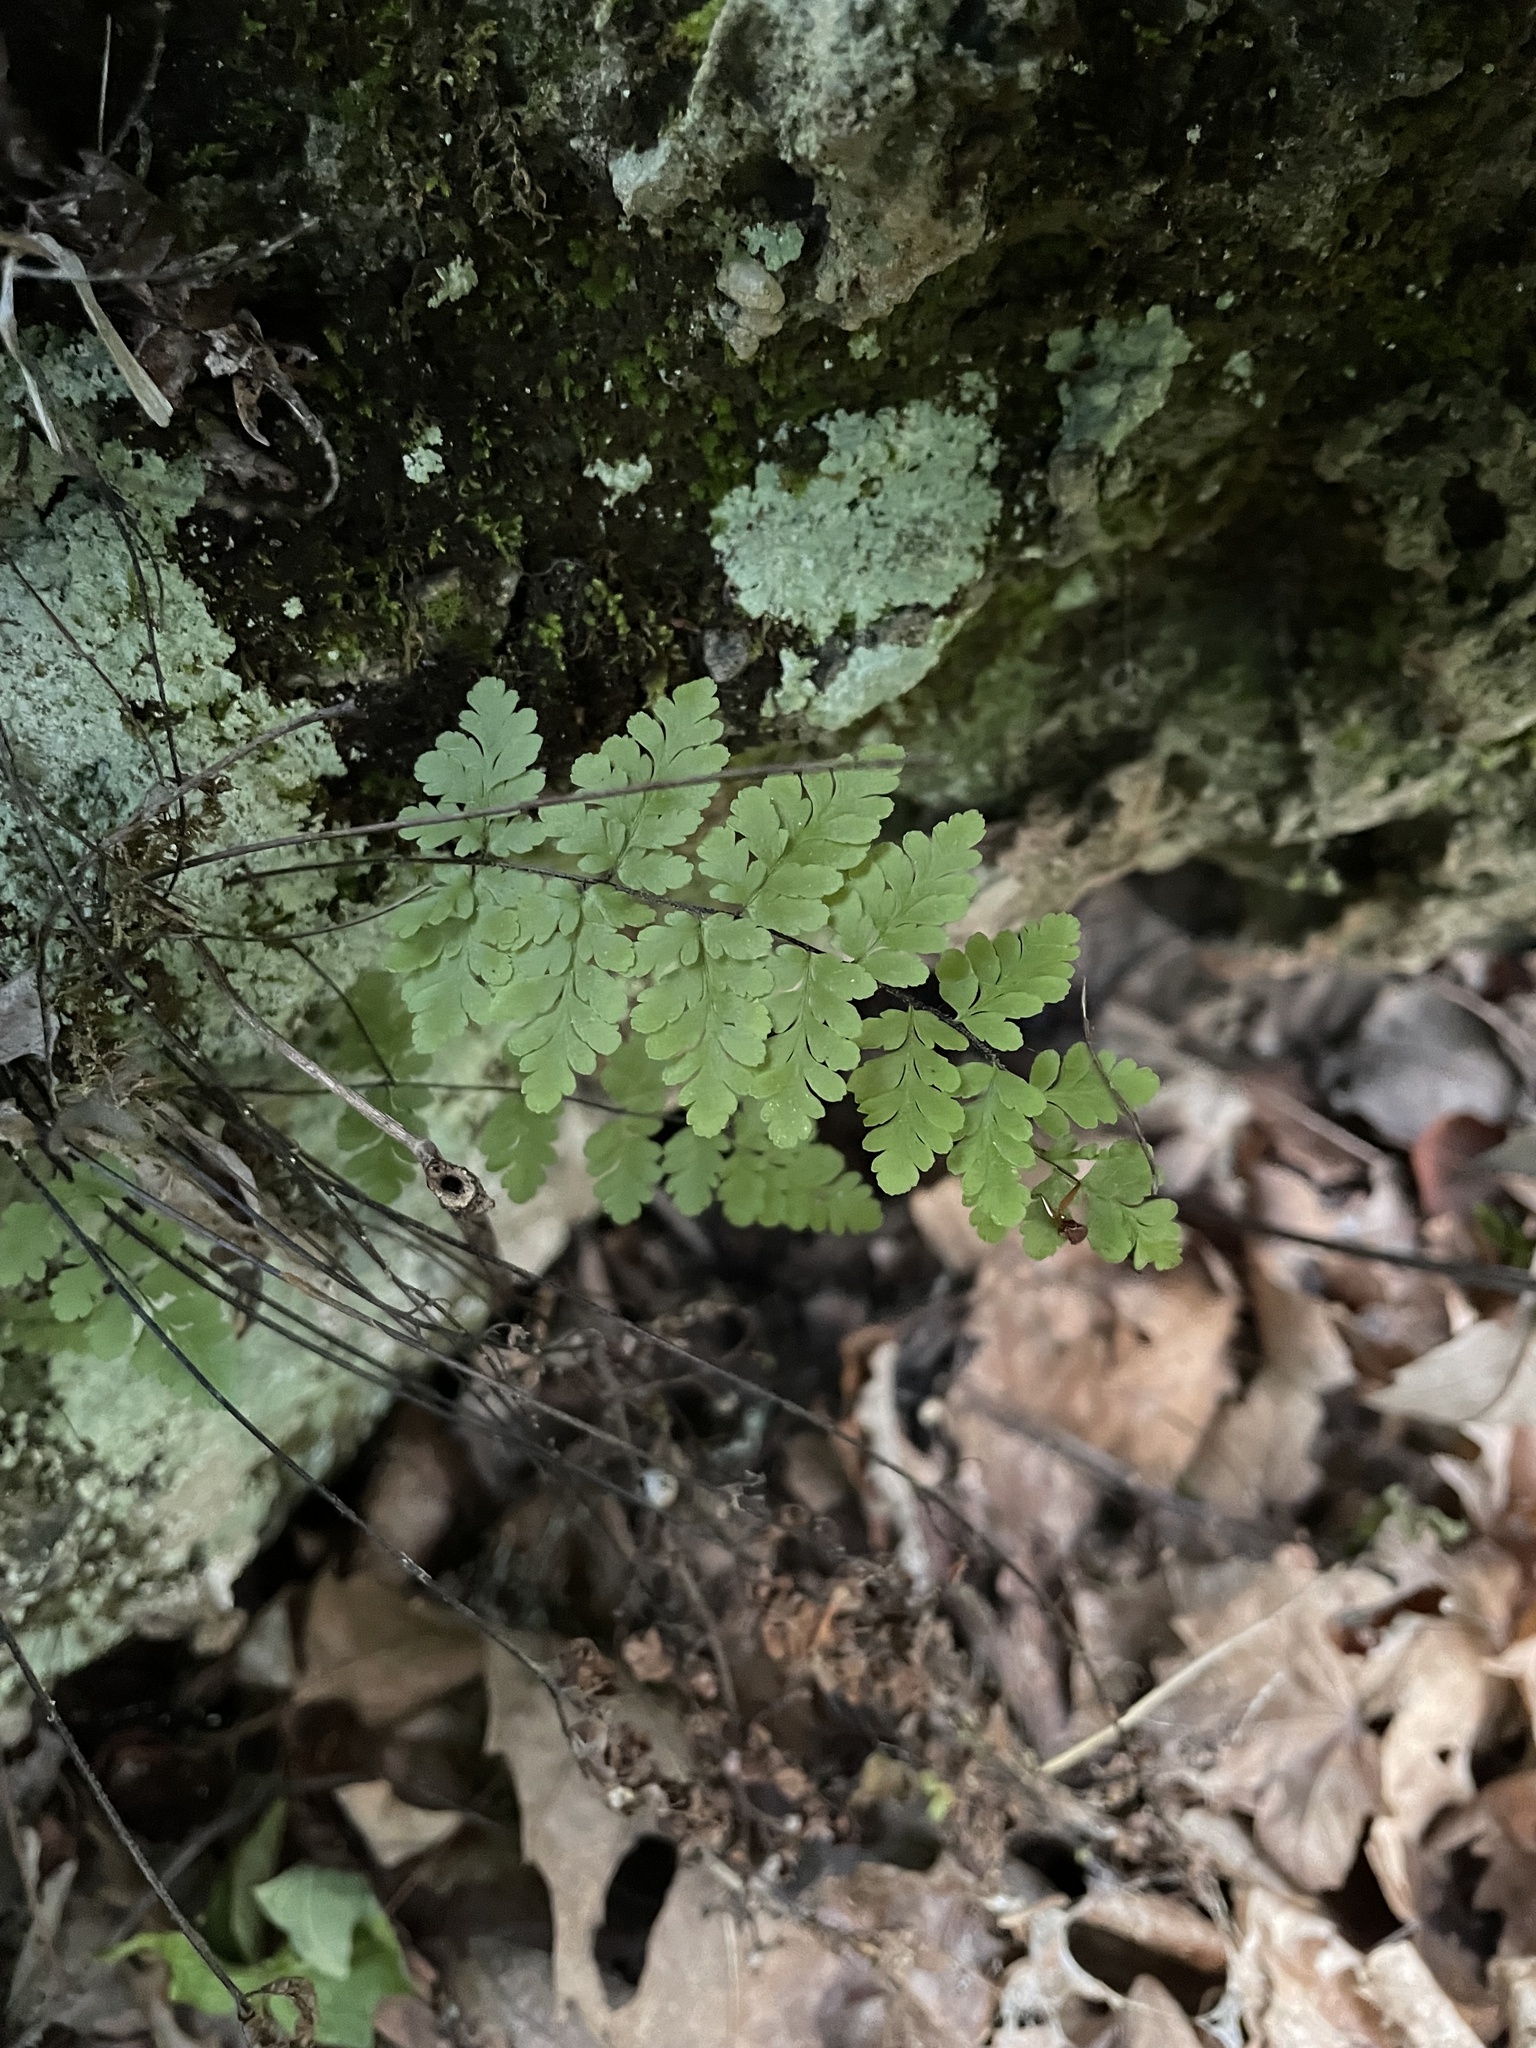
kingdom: Plantae
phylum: Tracheophyta
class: Polypodiopsida
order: Polypodiales
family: Pteridaceae
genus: Myriopteris
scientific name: Myriopteris alabamensis
